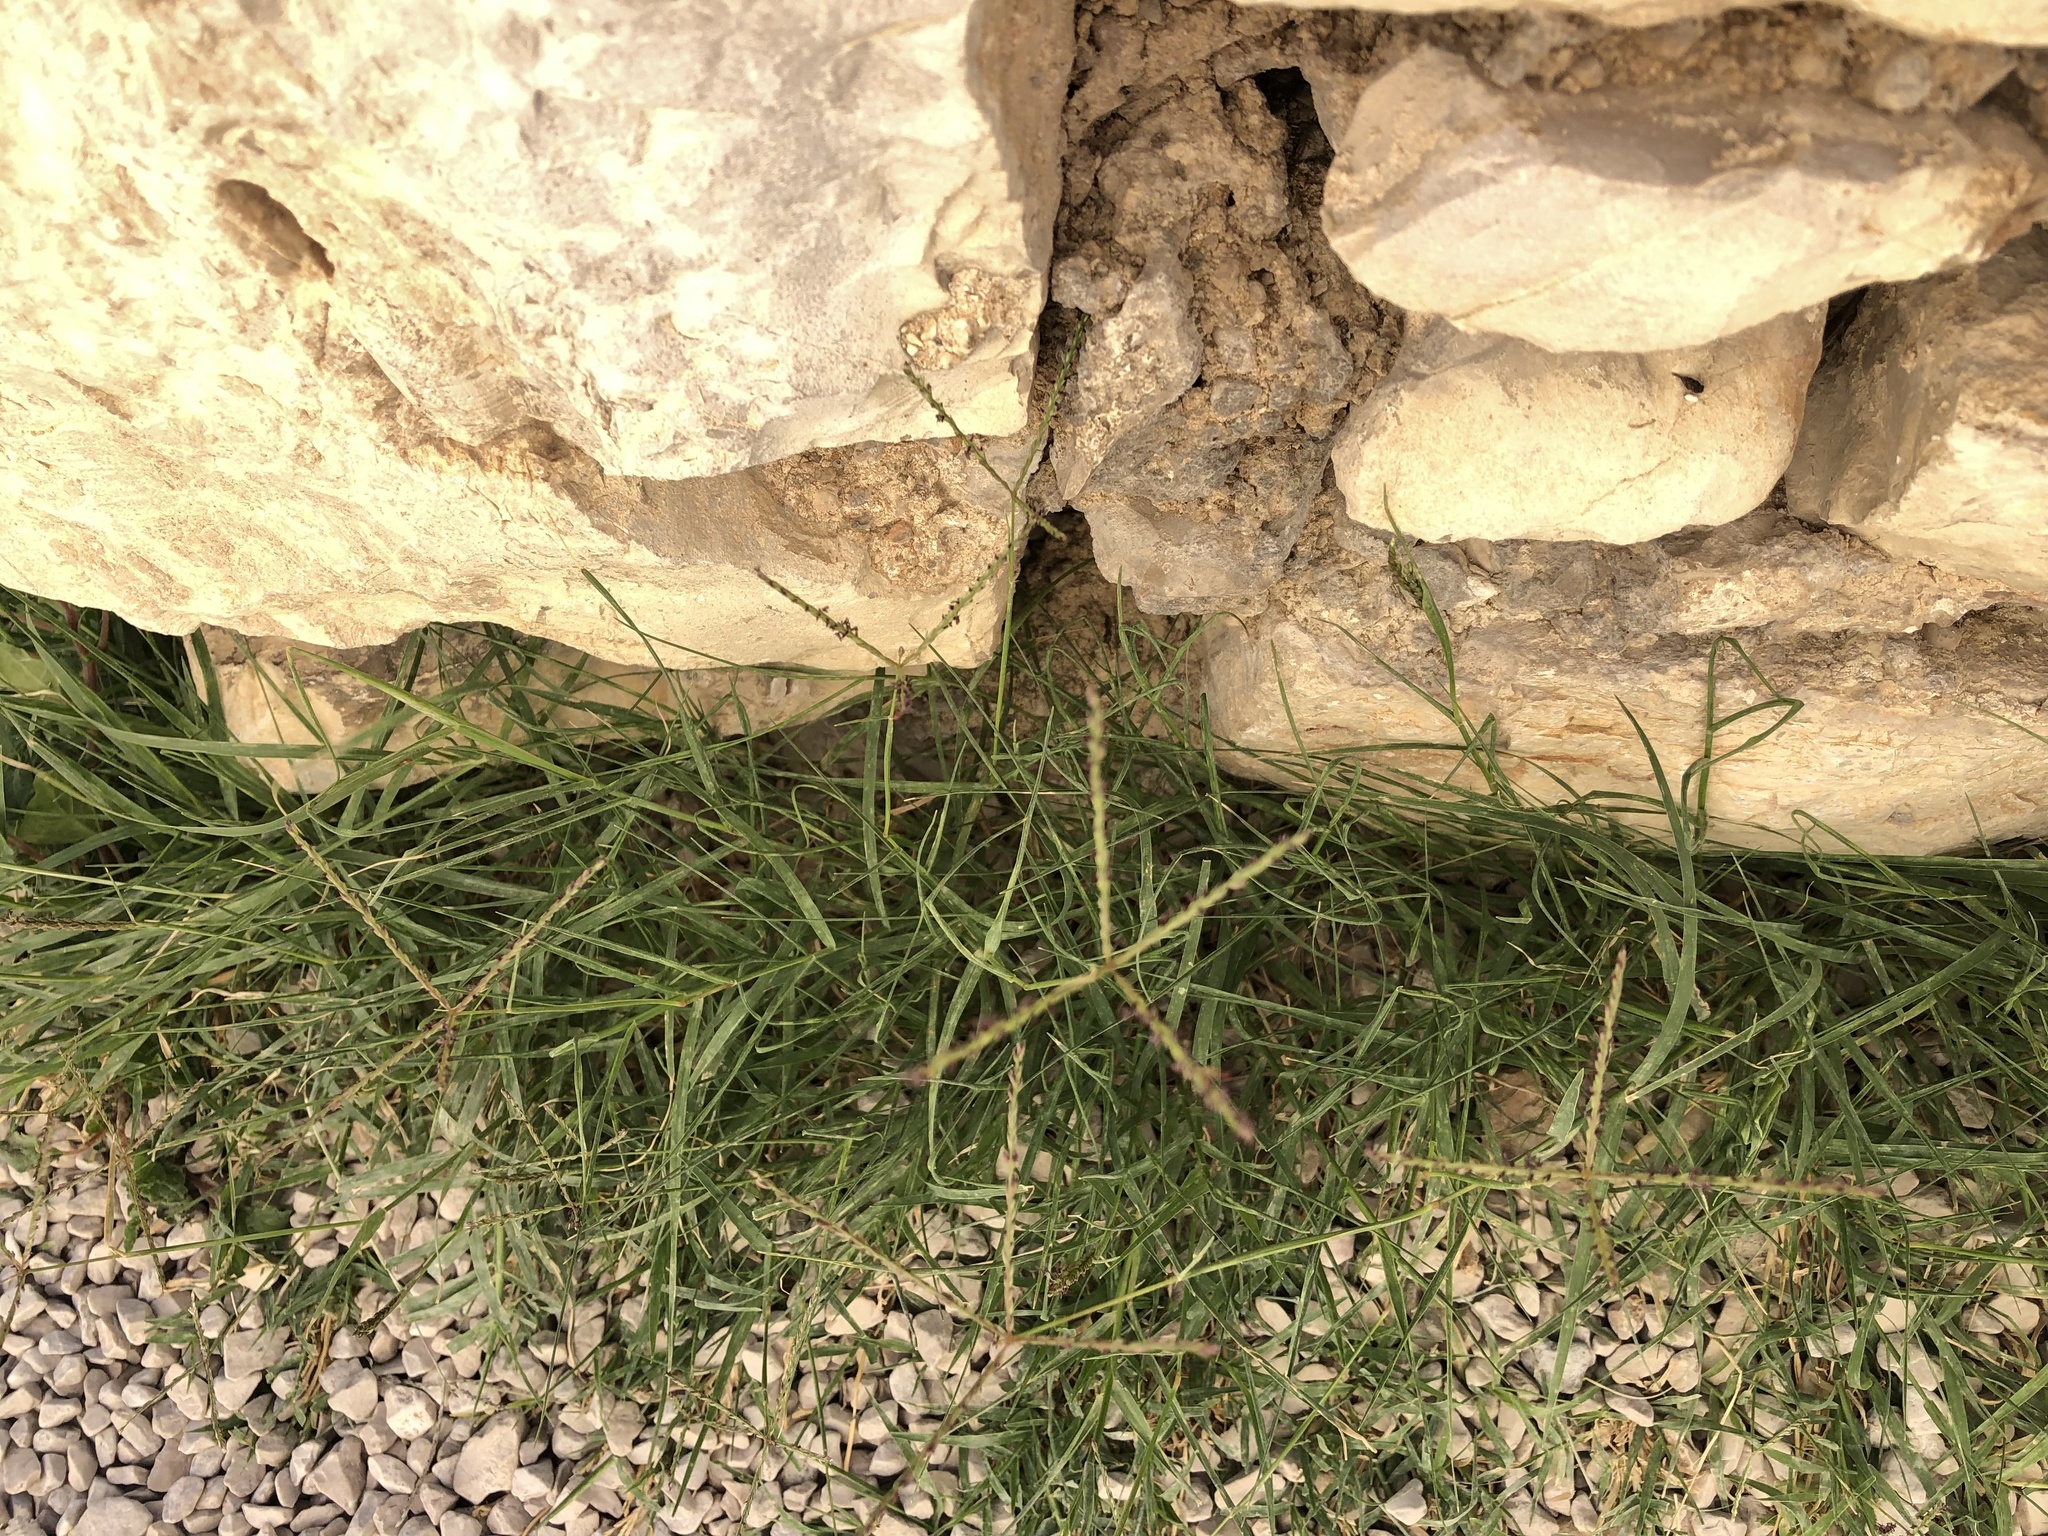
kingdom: Plantae
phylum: Tracheophyta
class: Liliopsida
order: Poales
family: Poaceae
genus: Cynodon
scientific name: Cynodon dactylon
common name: Bermuda grass
